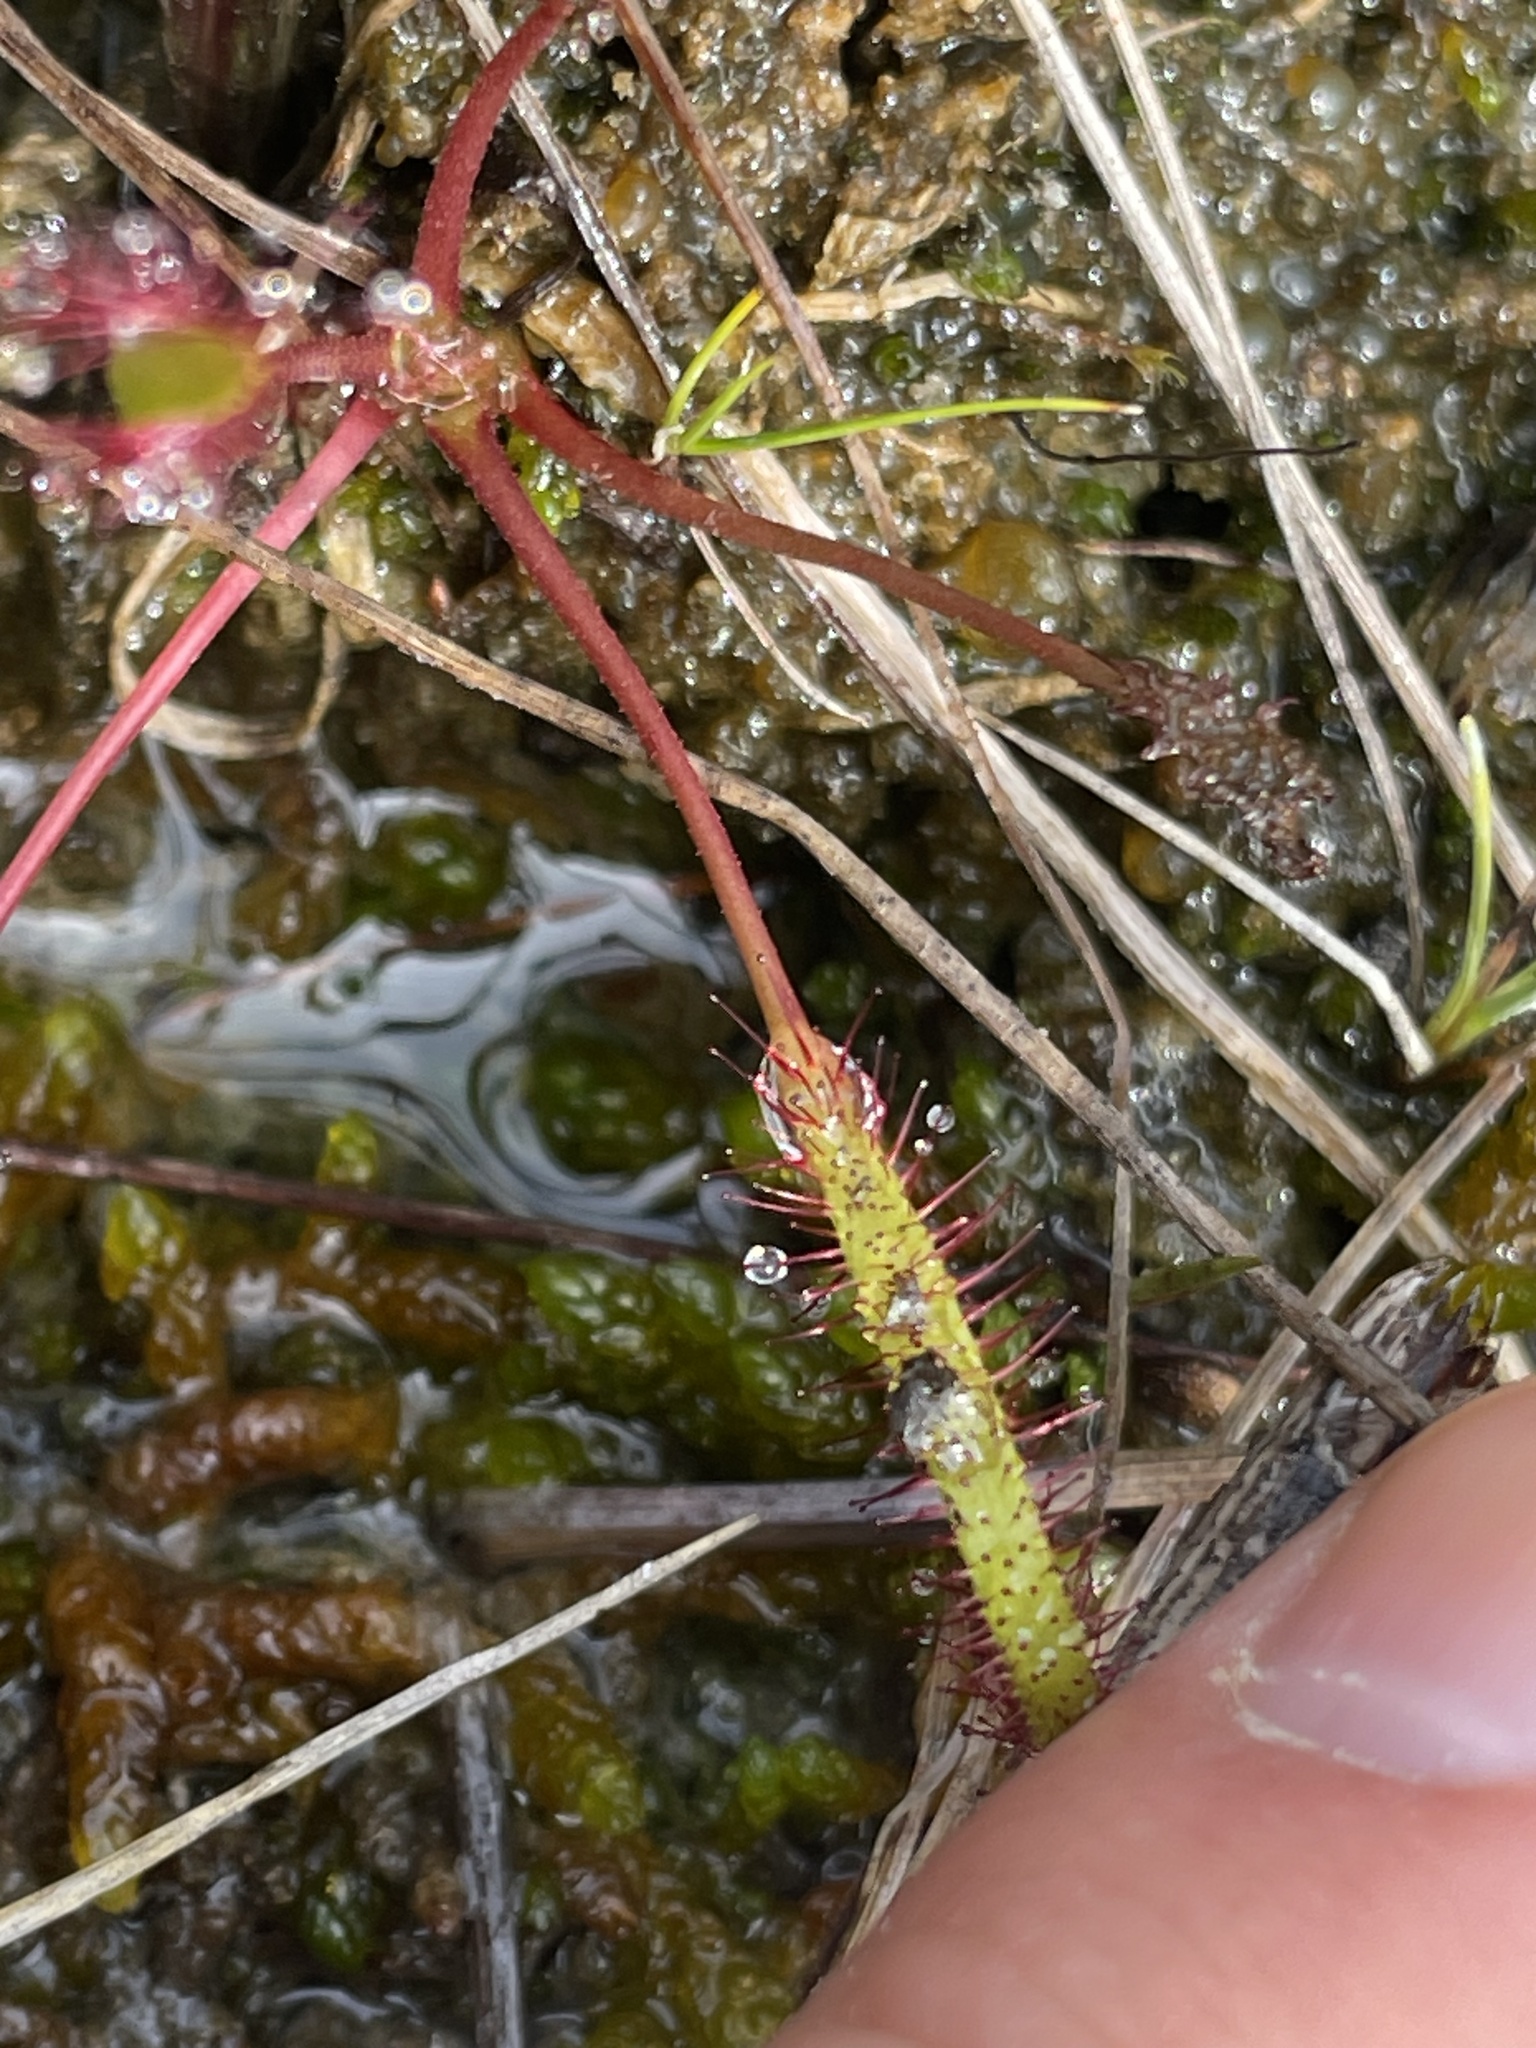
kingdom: Plantae
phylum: Tracheophyta
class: Magnoliopsida
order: Caryophyllales
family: Droseraceae
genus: Drosera
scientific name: Drosera linearis
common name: Linear-leaved sundew
